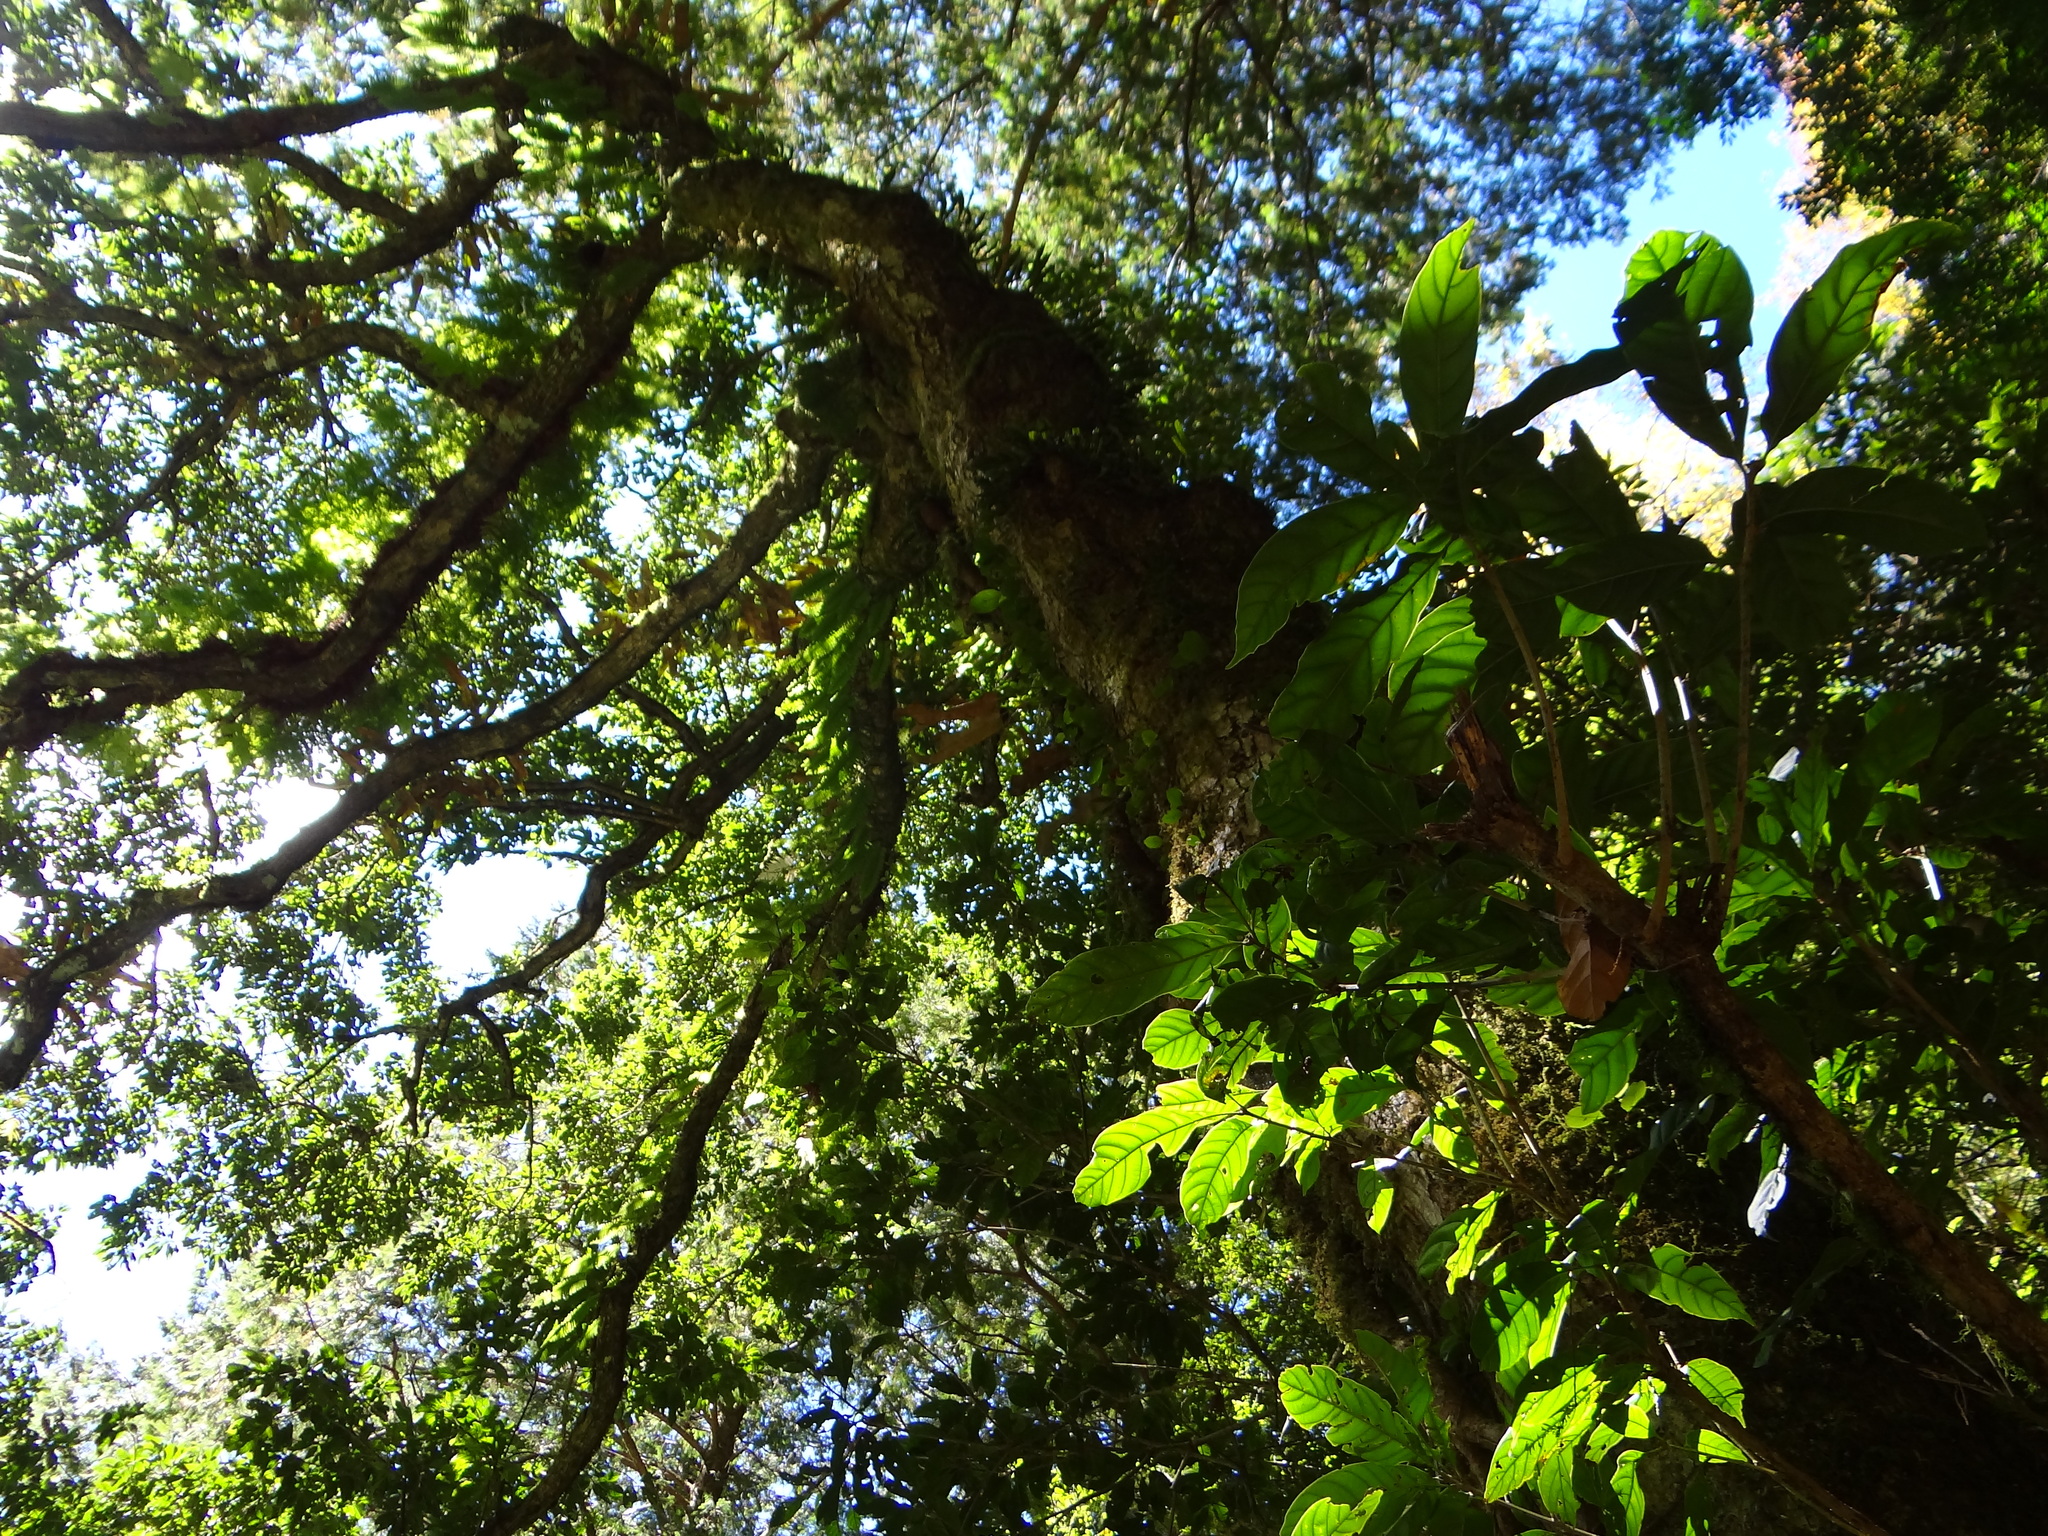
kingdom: Plantae
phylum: Tracheophyta
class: Magnoliopsida
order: Fagales
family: Fagaceae
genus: Lithocarpus
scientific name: Lithocarpus kawakamii
